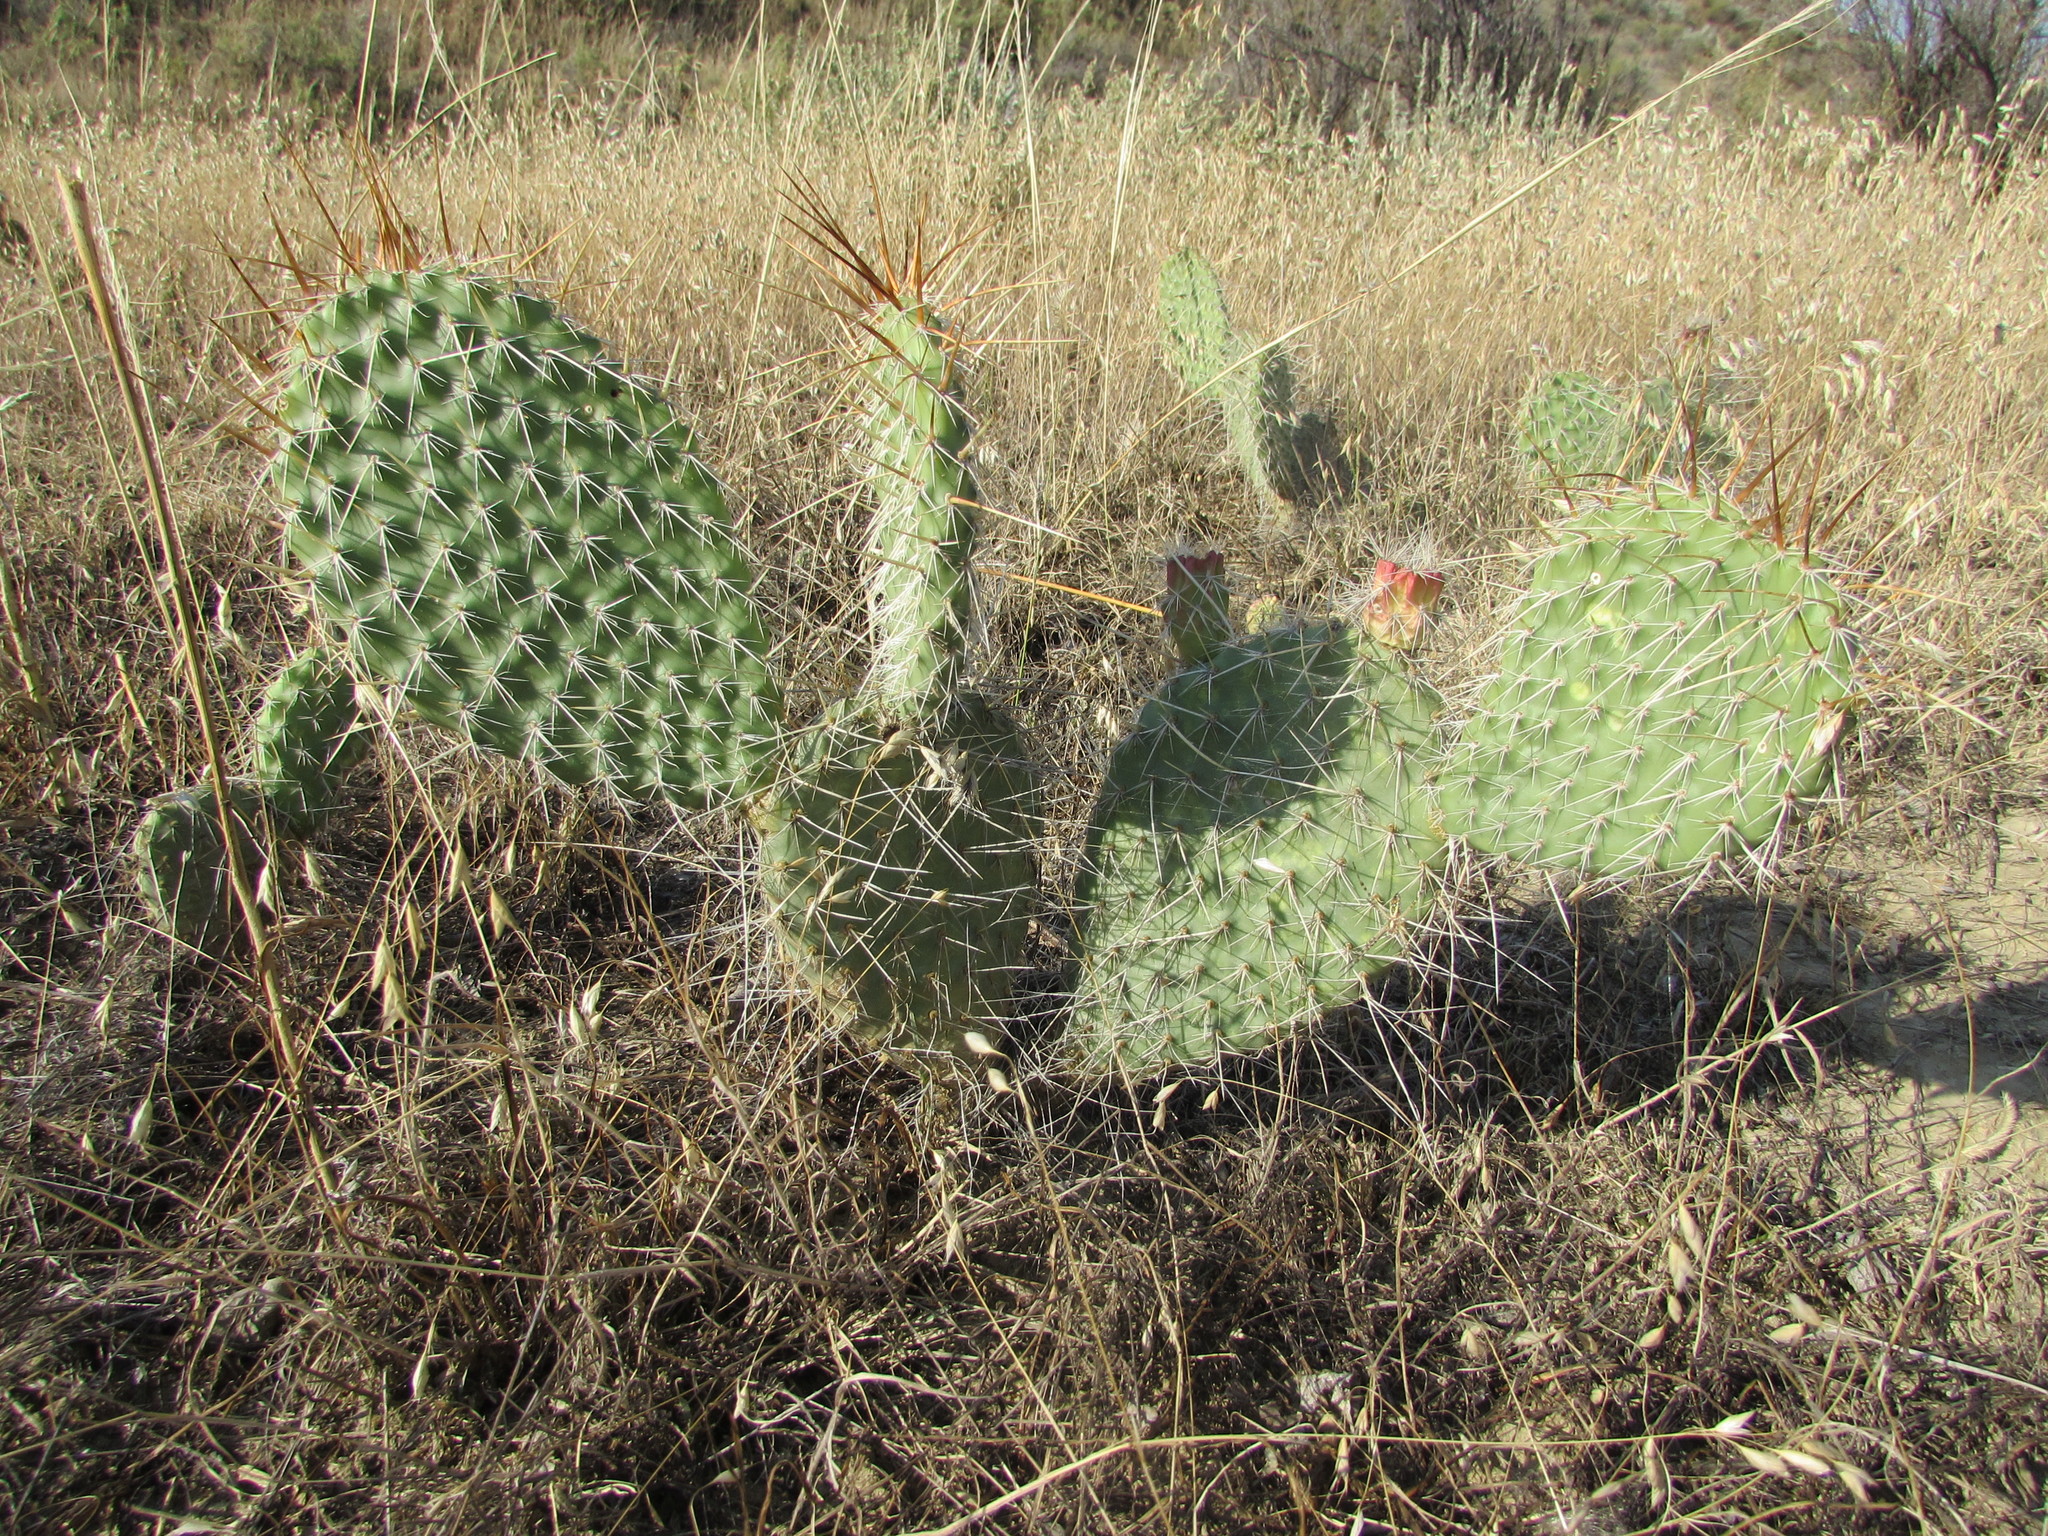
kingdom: Plantae
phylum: Tracheophyta
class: Magnoliopsida
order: Caryophyllales
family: Cactaceae
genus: Opuntia
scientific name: Opuntia polyacantha
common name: Plains prickly-pear
